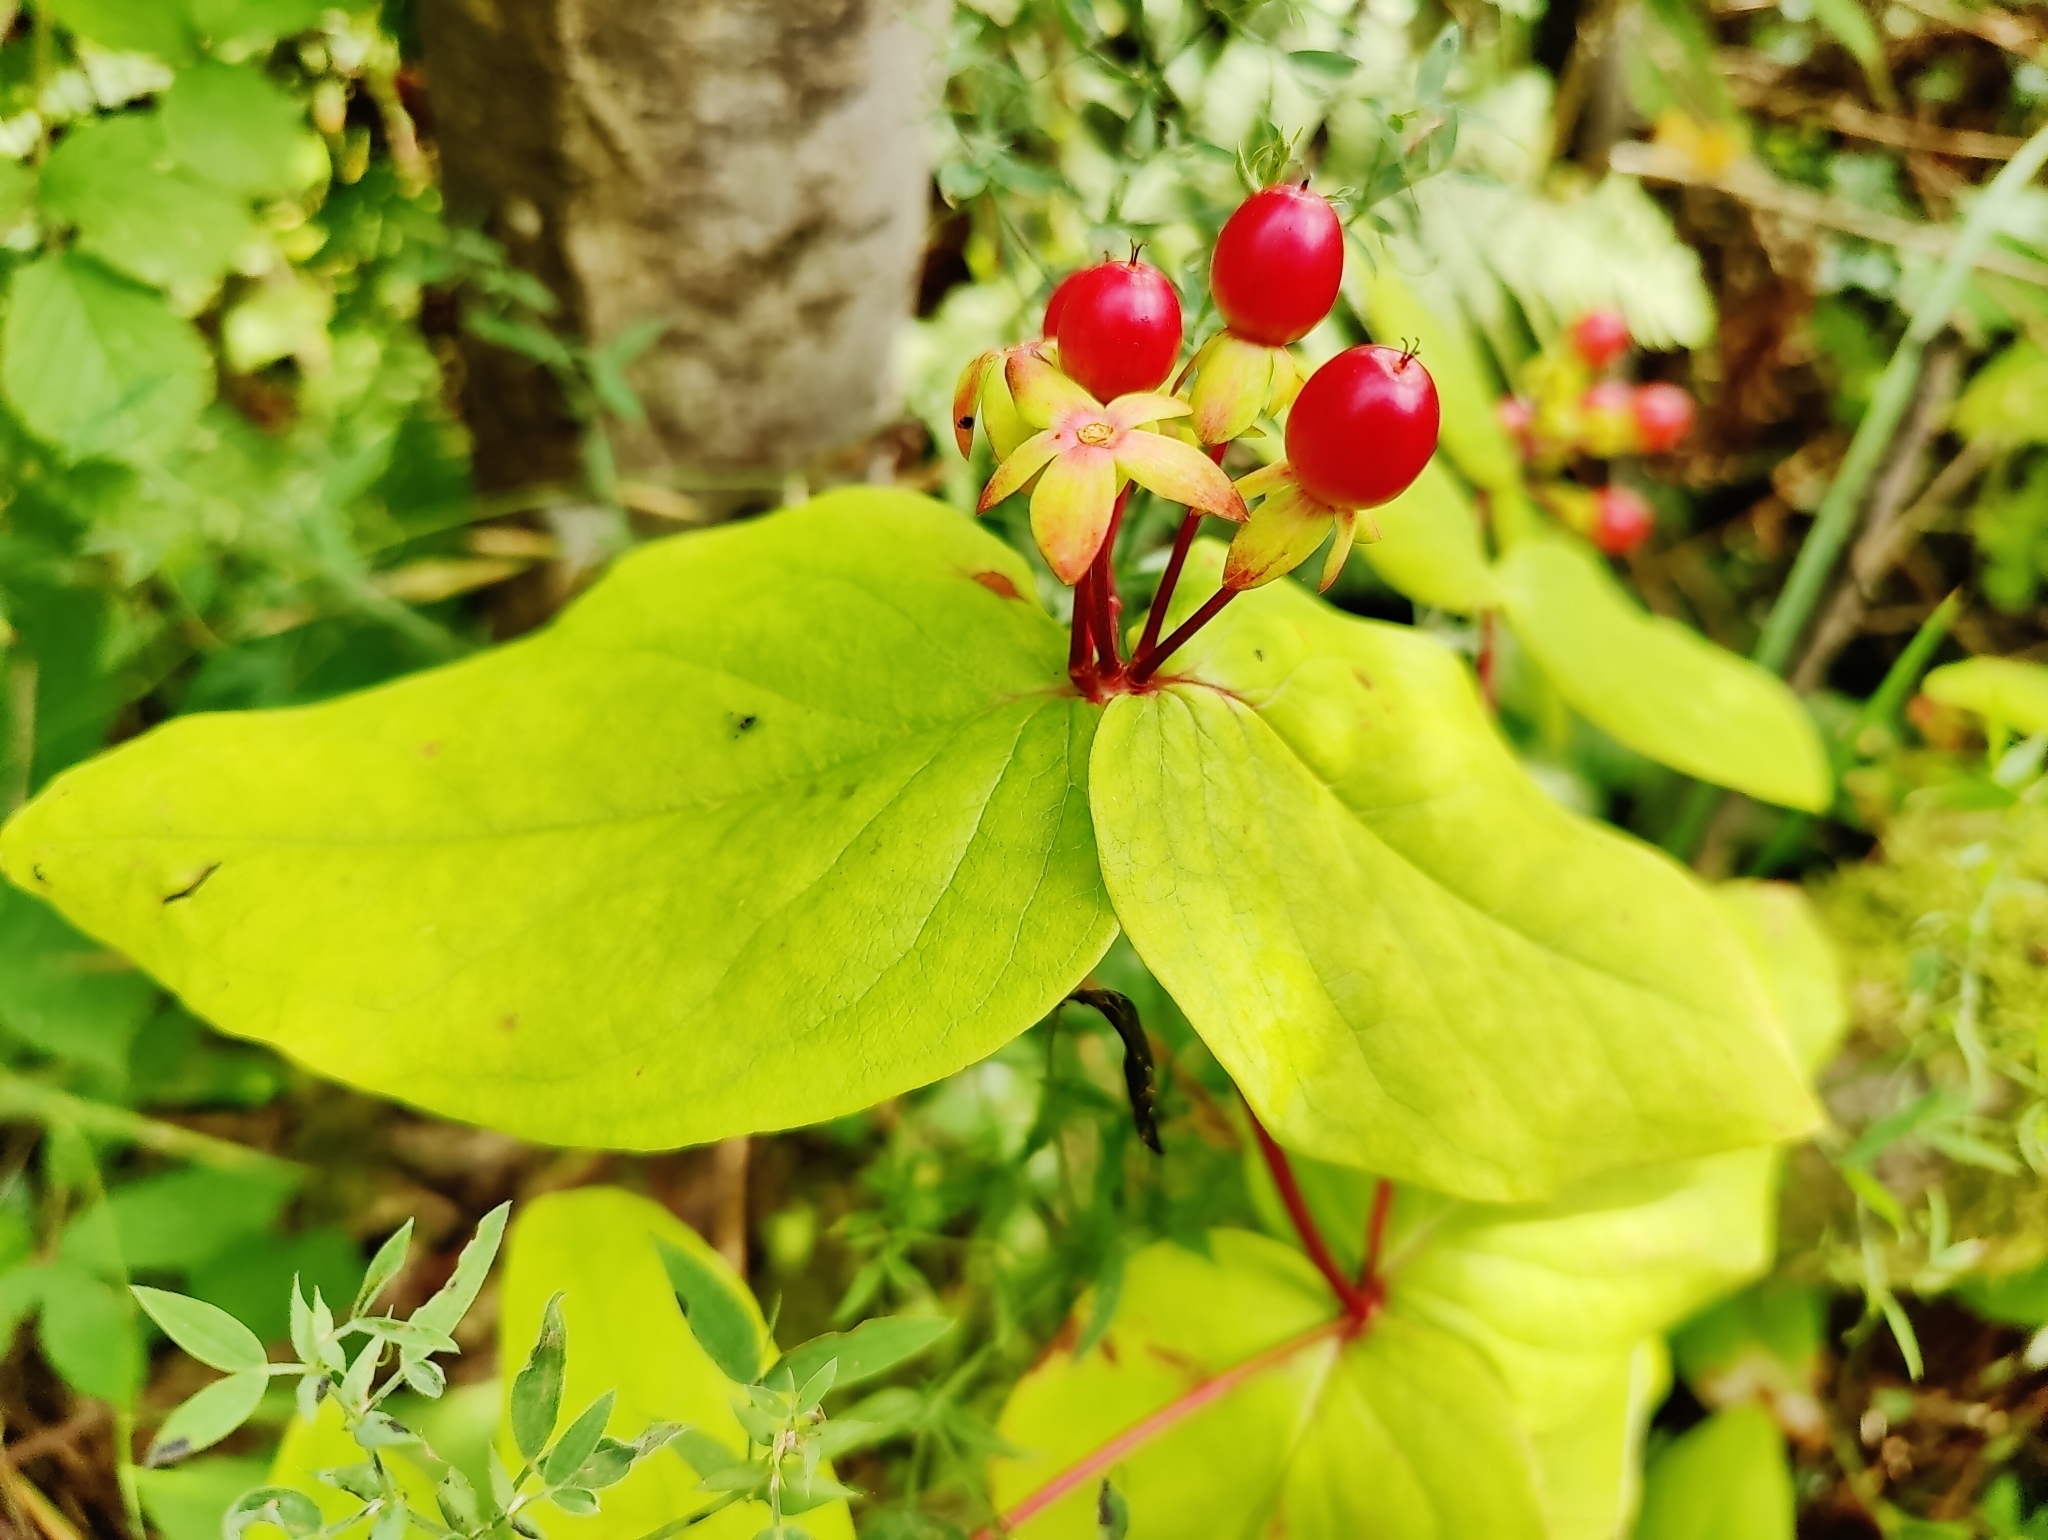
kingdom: Plantae
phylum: Tracheophyta
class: Magnoliopsida
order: Malpighiales
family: Hypericaceae
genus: Hypericum
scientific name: Hypericum androsaemum
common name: Sweet-amber
